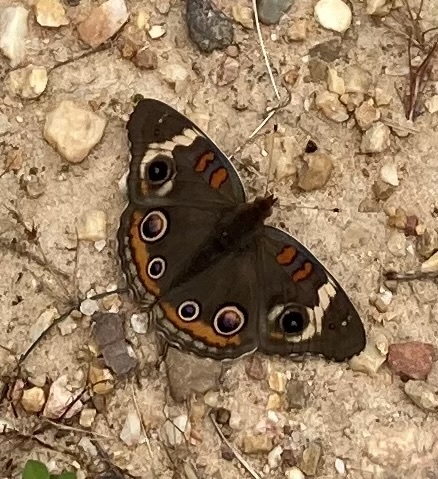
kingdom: Animalia
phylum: Arthropoda
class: Insecta
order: Lepidoptera
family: Nymphalidae
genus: Junonia
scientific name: Junonia coenia
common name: Common buckeye
